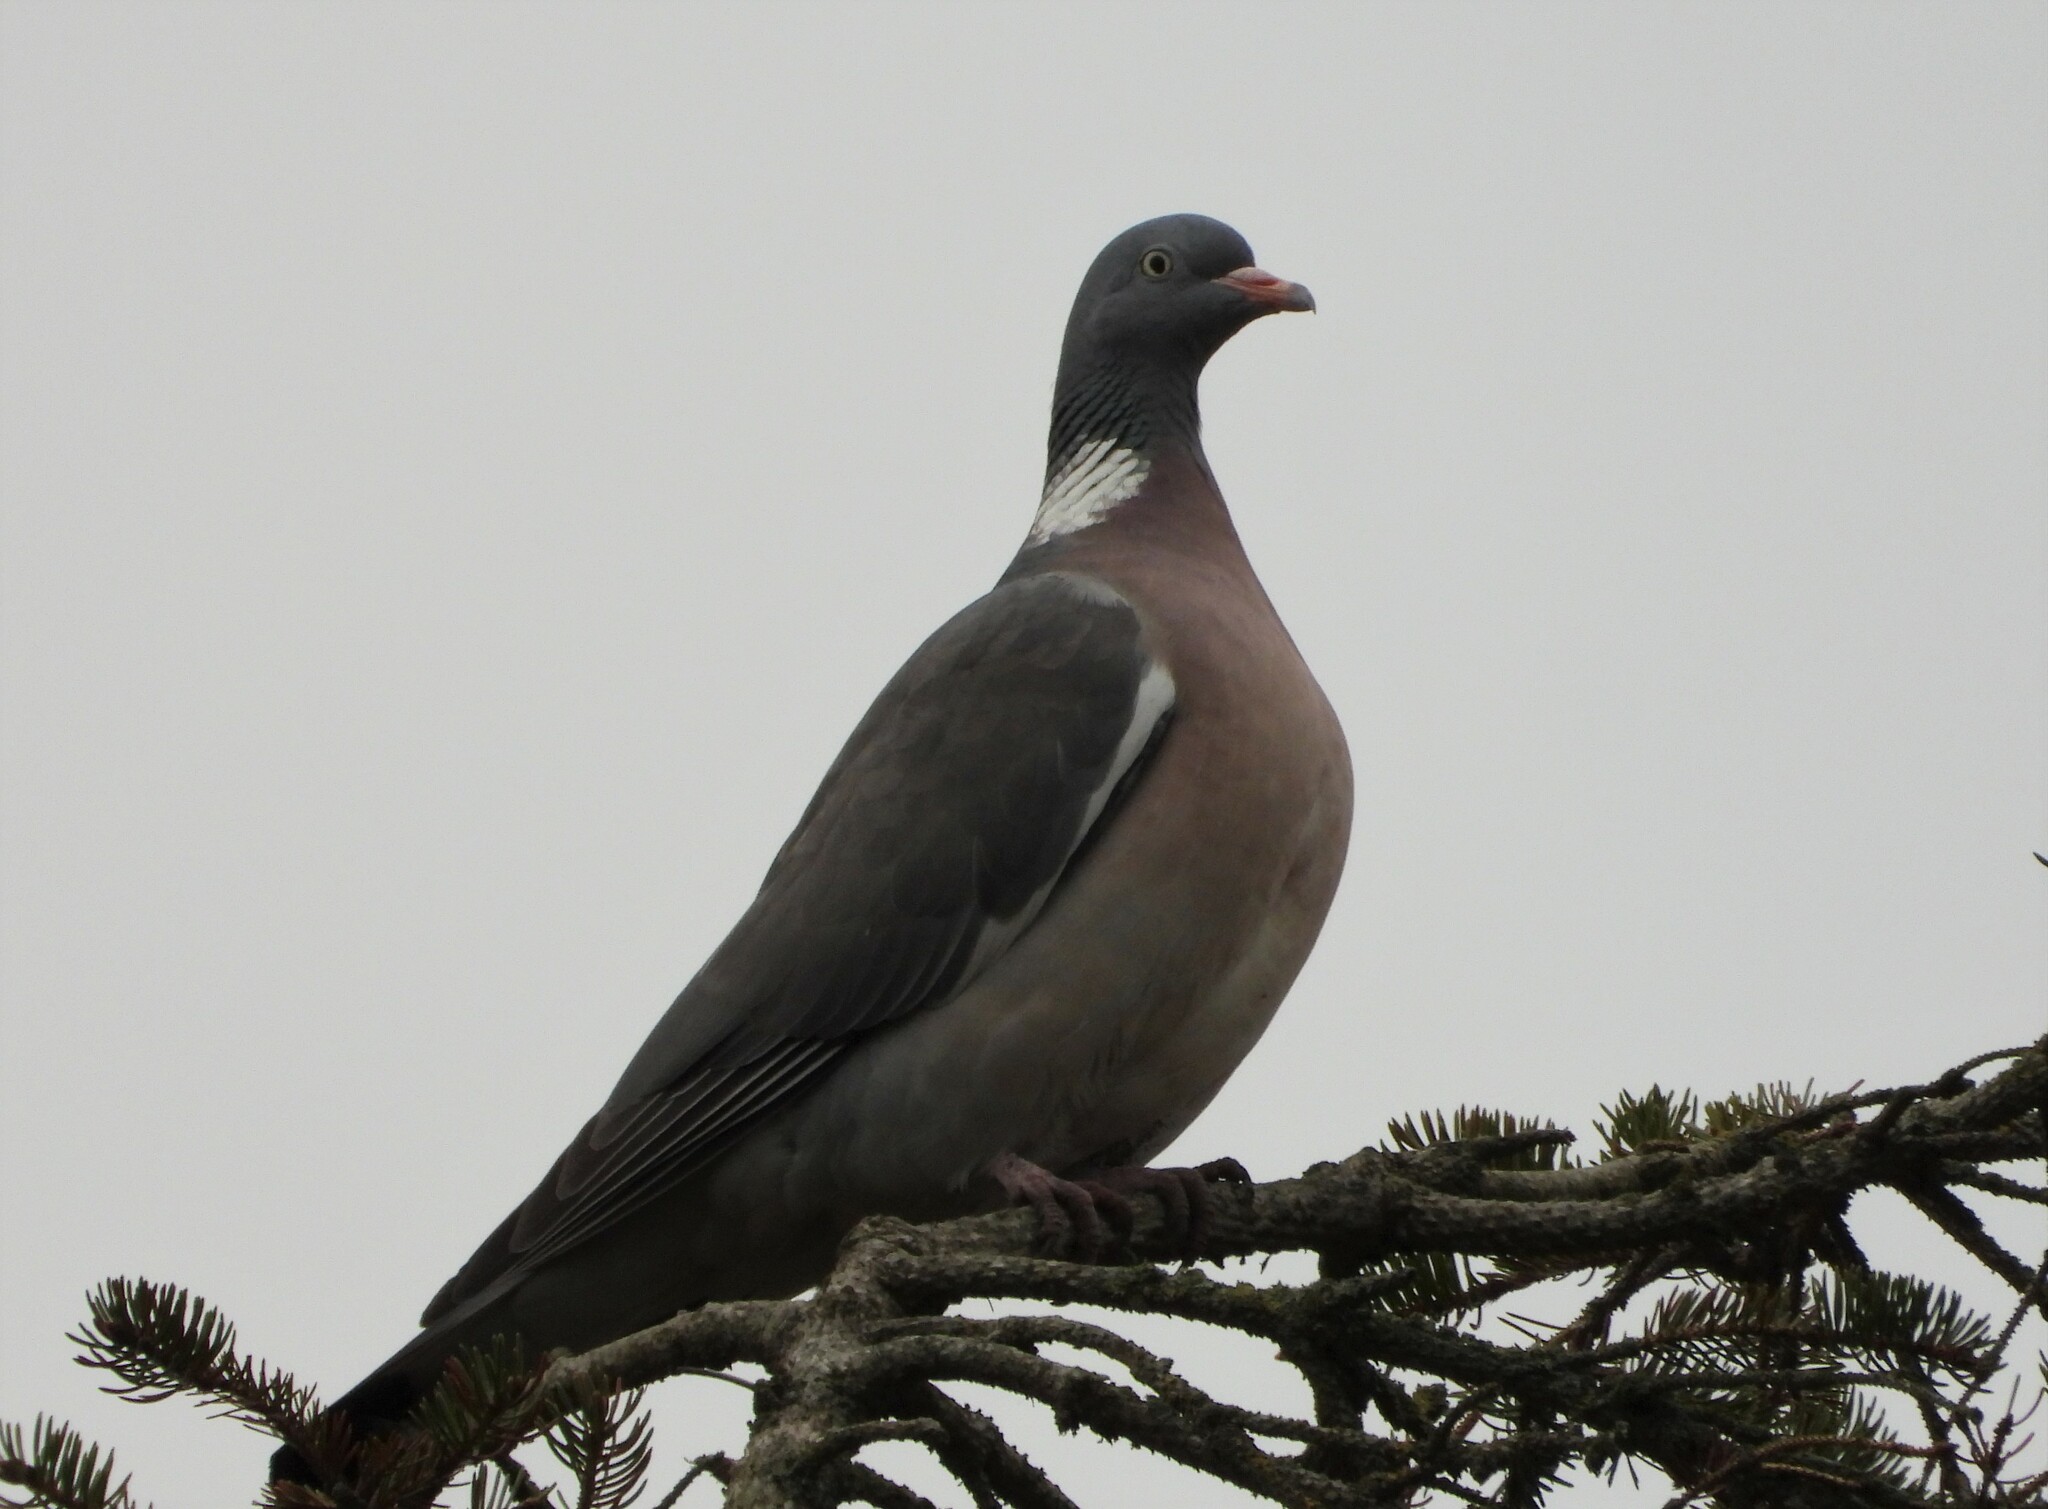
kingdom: Animalia
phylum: Chordata
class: Aves
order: Columbiformes
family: Columbidae
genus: Columba
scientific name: Columba palumbus
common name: Common wood pigeon
